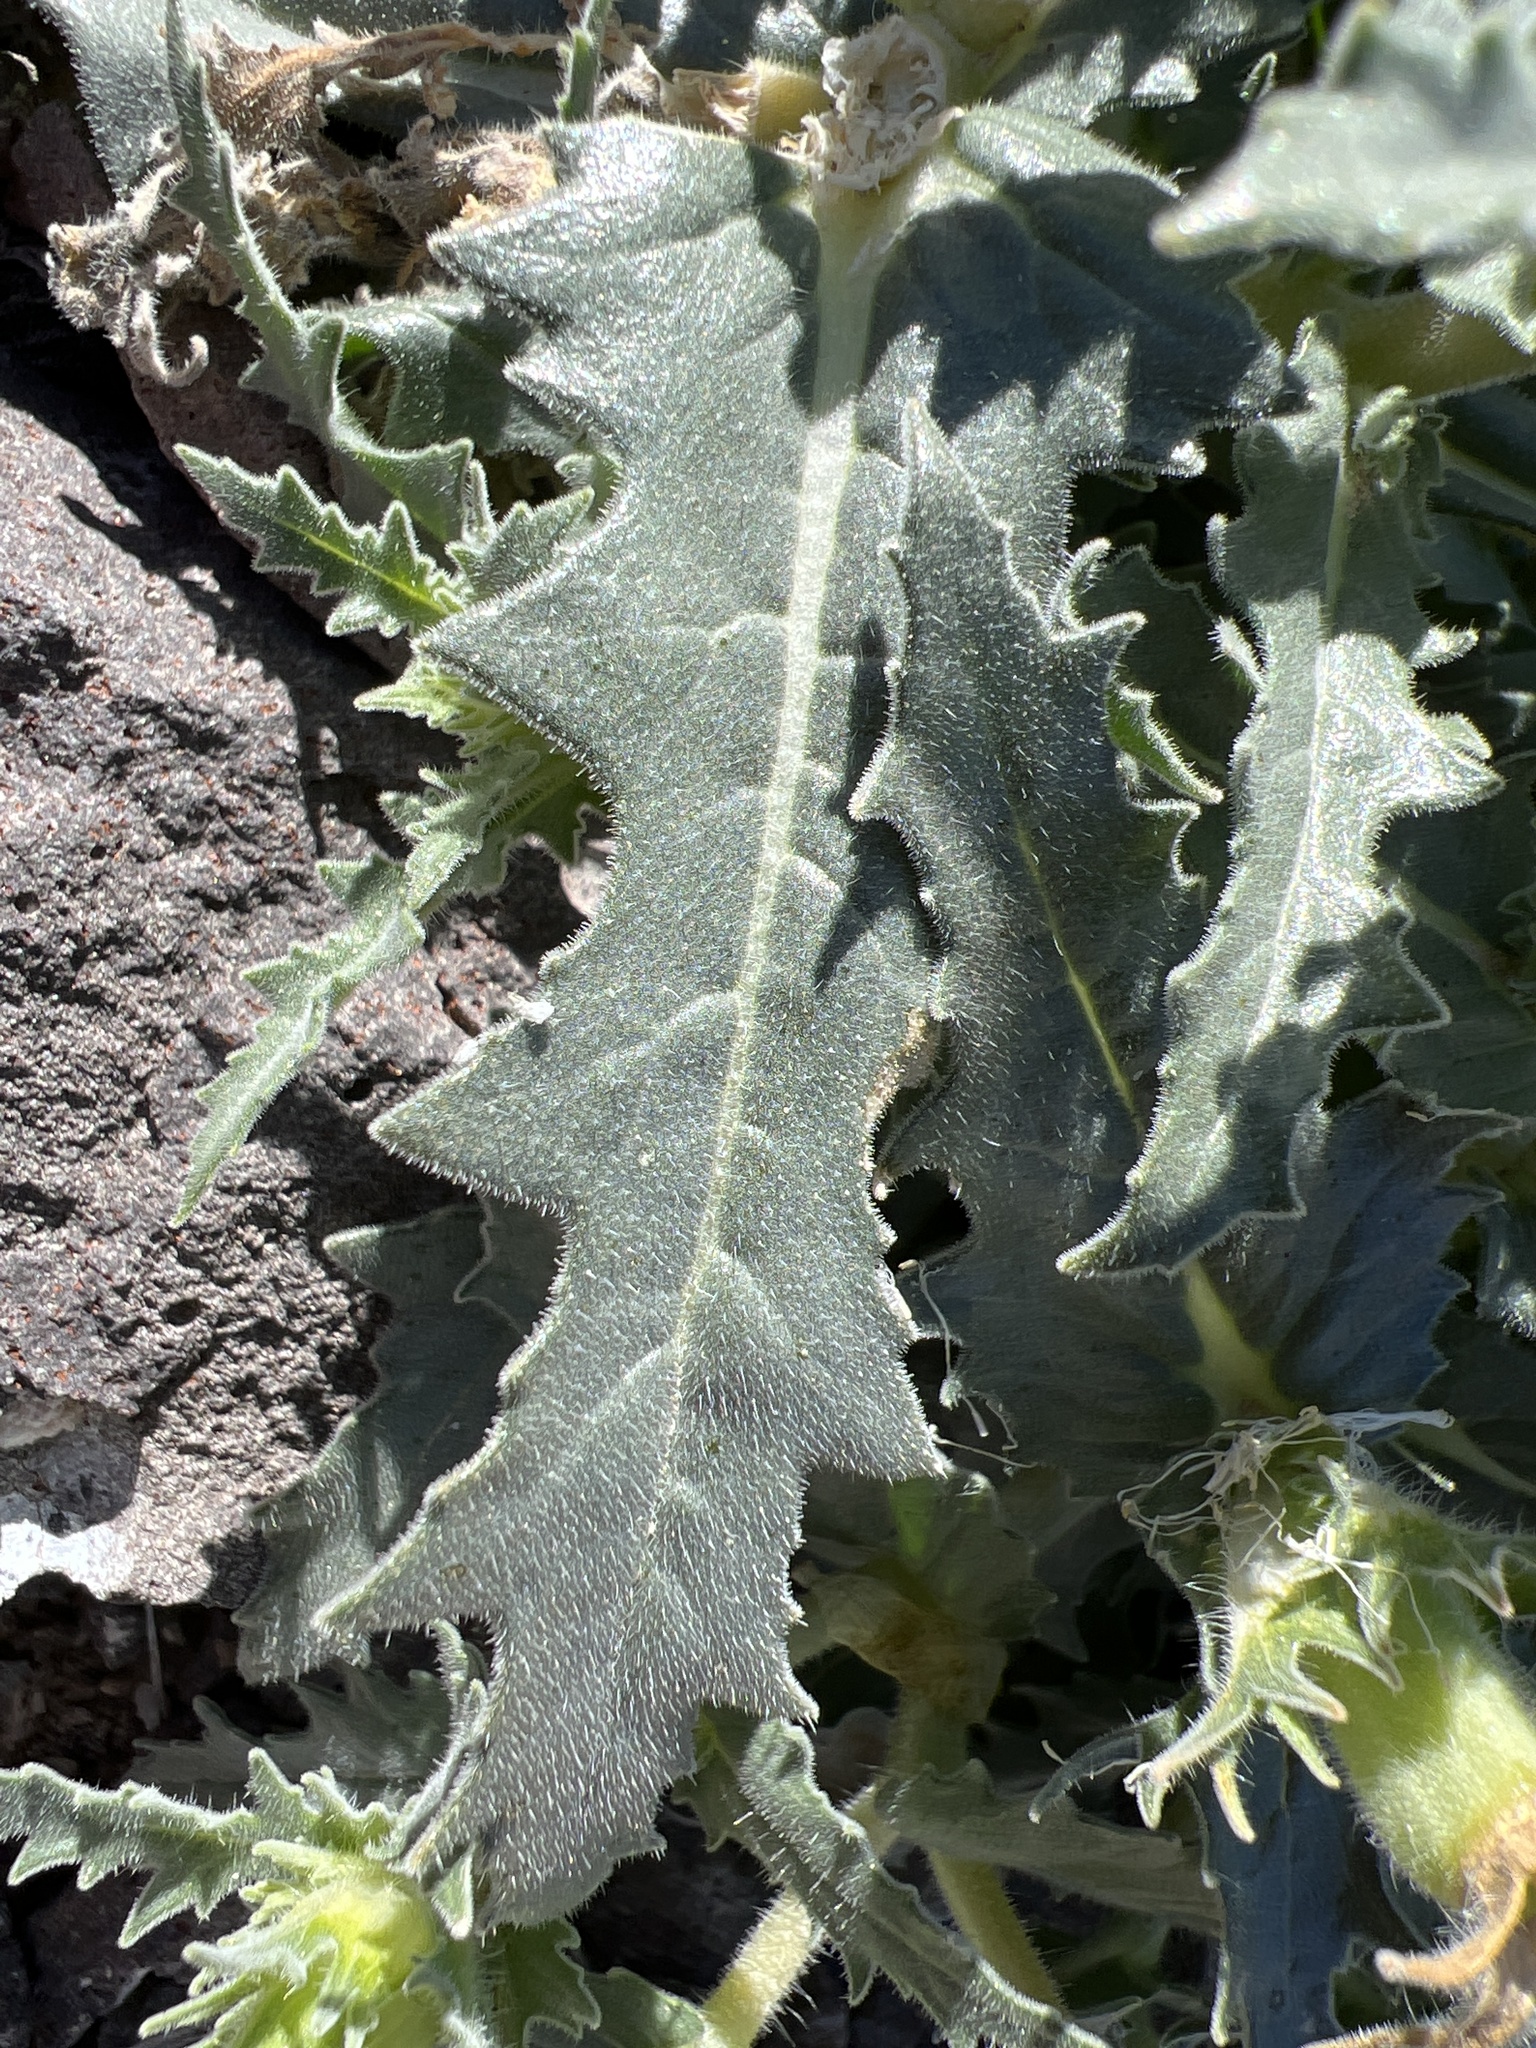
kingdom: Plantae
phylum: Tracheophyta
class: Magnoliopsida
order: Cornales
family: Loasaceae
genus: Mentzelia
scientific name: Mentzelia involucrata
